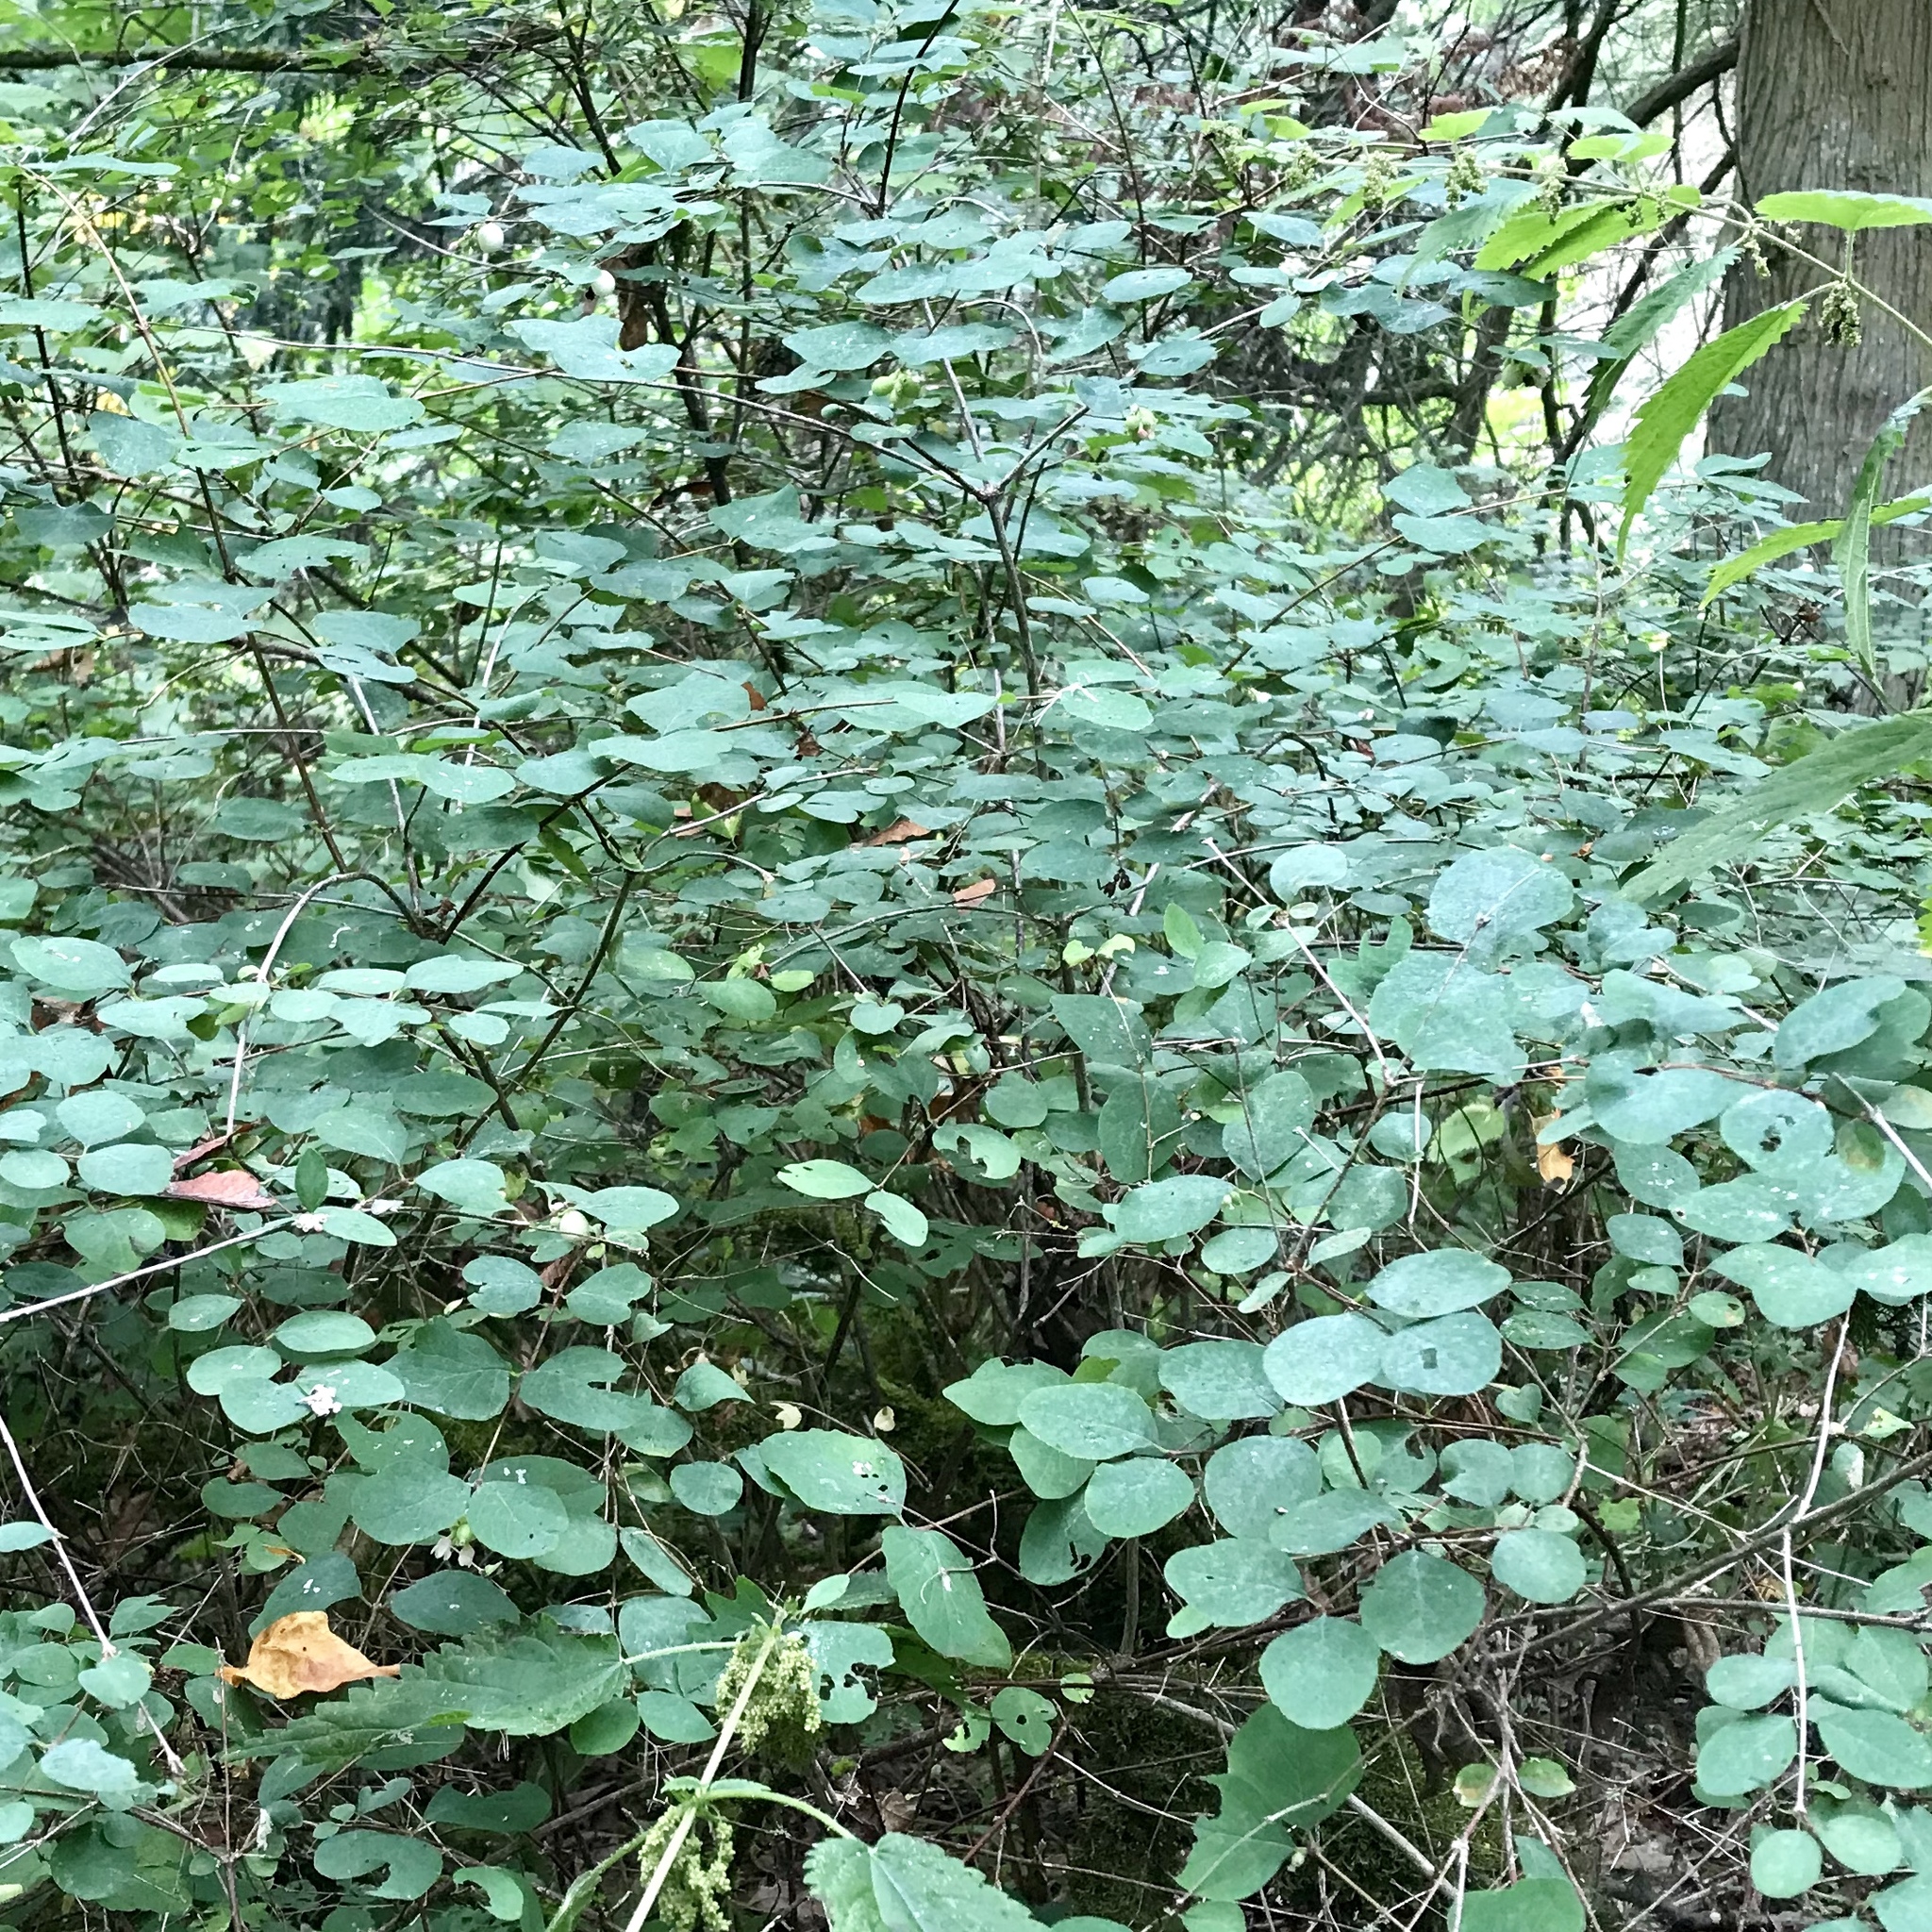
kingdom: Plantae
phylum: Tracheophyta
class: Magnoliopsida
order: Dipsacales
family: Caprifoliaceae
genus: Symphoricarpos
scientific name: Symphoricarpos albus
